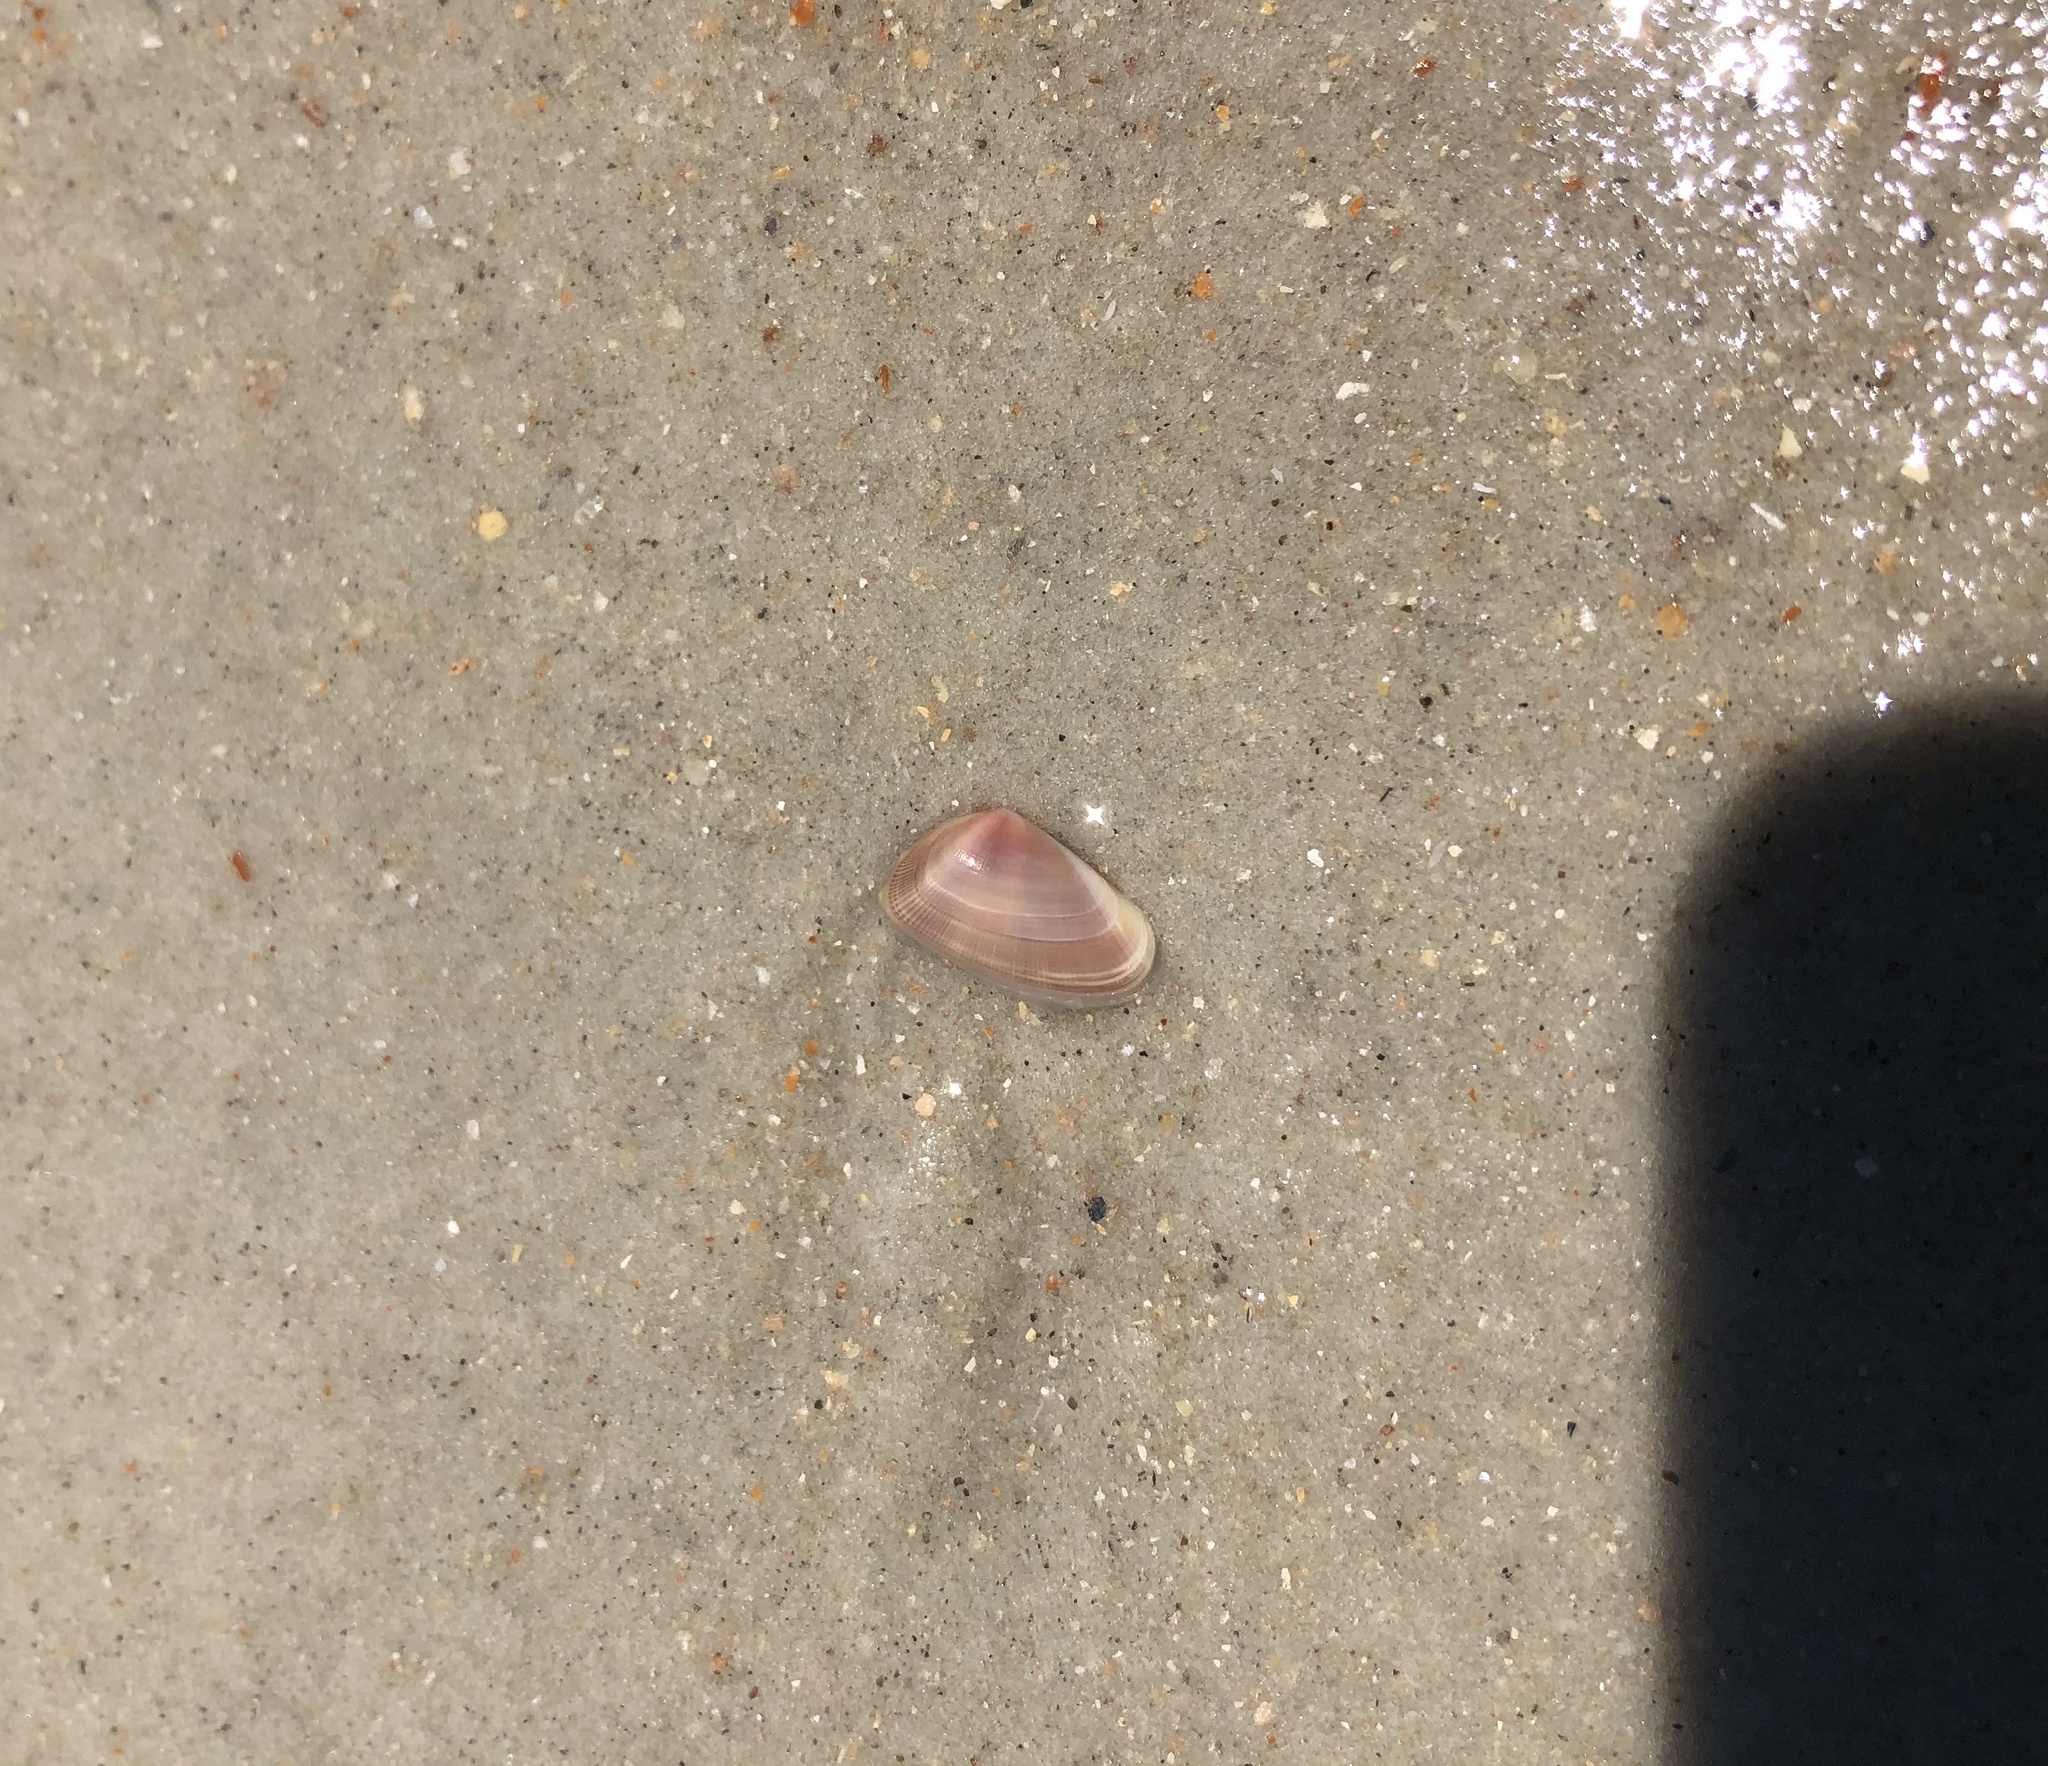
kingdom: Animalia
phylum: Mollusca
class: Bivalvia
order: Cardiida
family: Donacidae
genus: Donax
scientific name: Donax variabilis
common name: Butterfly shell
